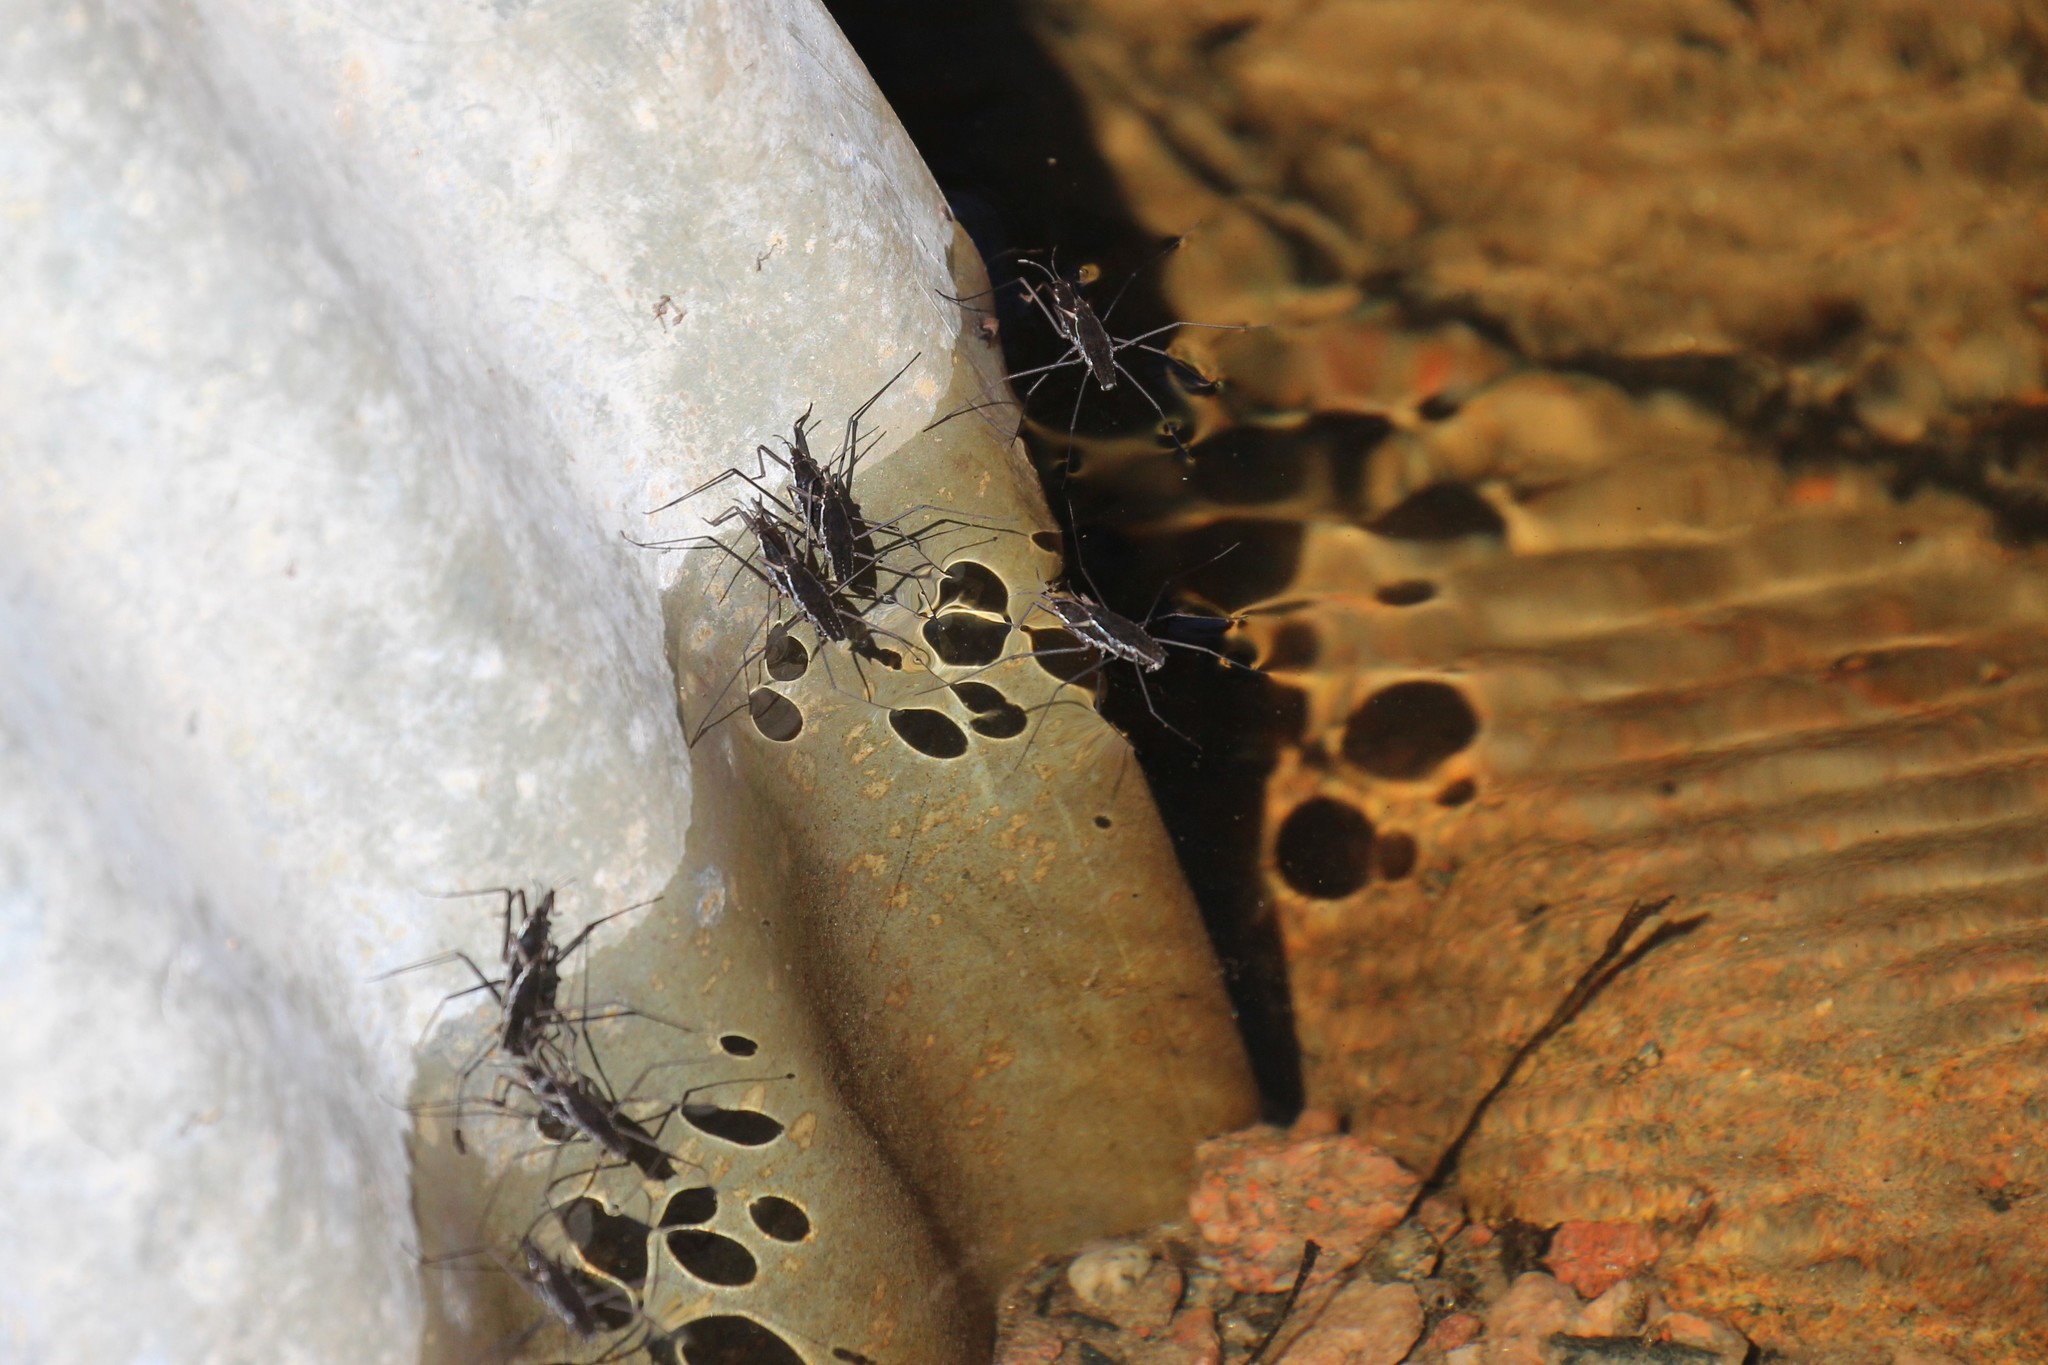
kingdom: Animalia
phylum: Arthropoda
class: Insecta
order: Hemiptera
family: Gerridae
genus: Aquarius
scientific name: Aquarius remigis
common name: Common water strider
